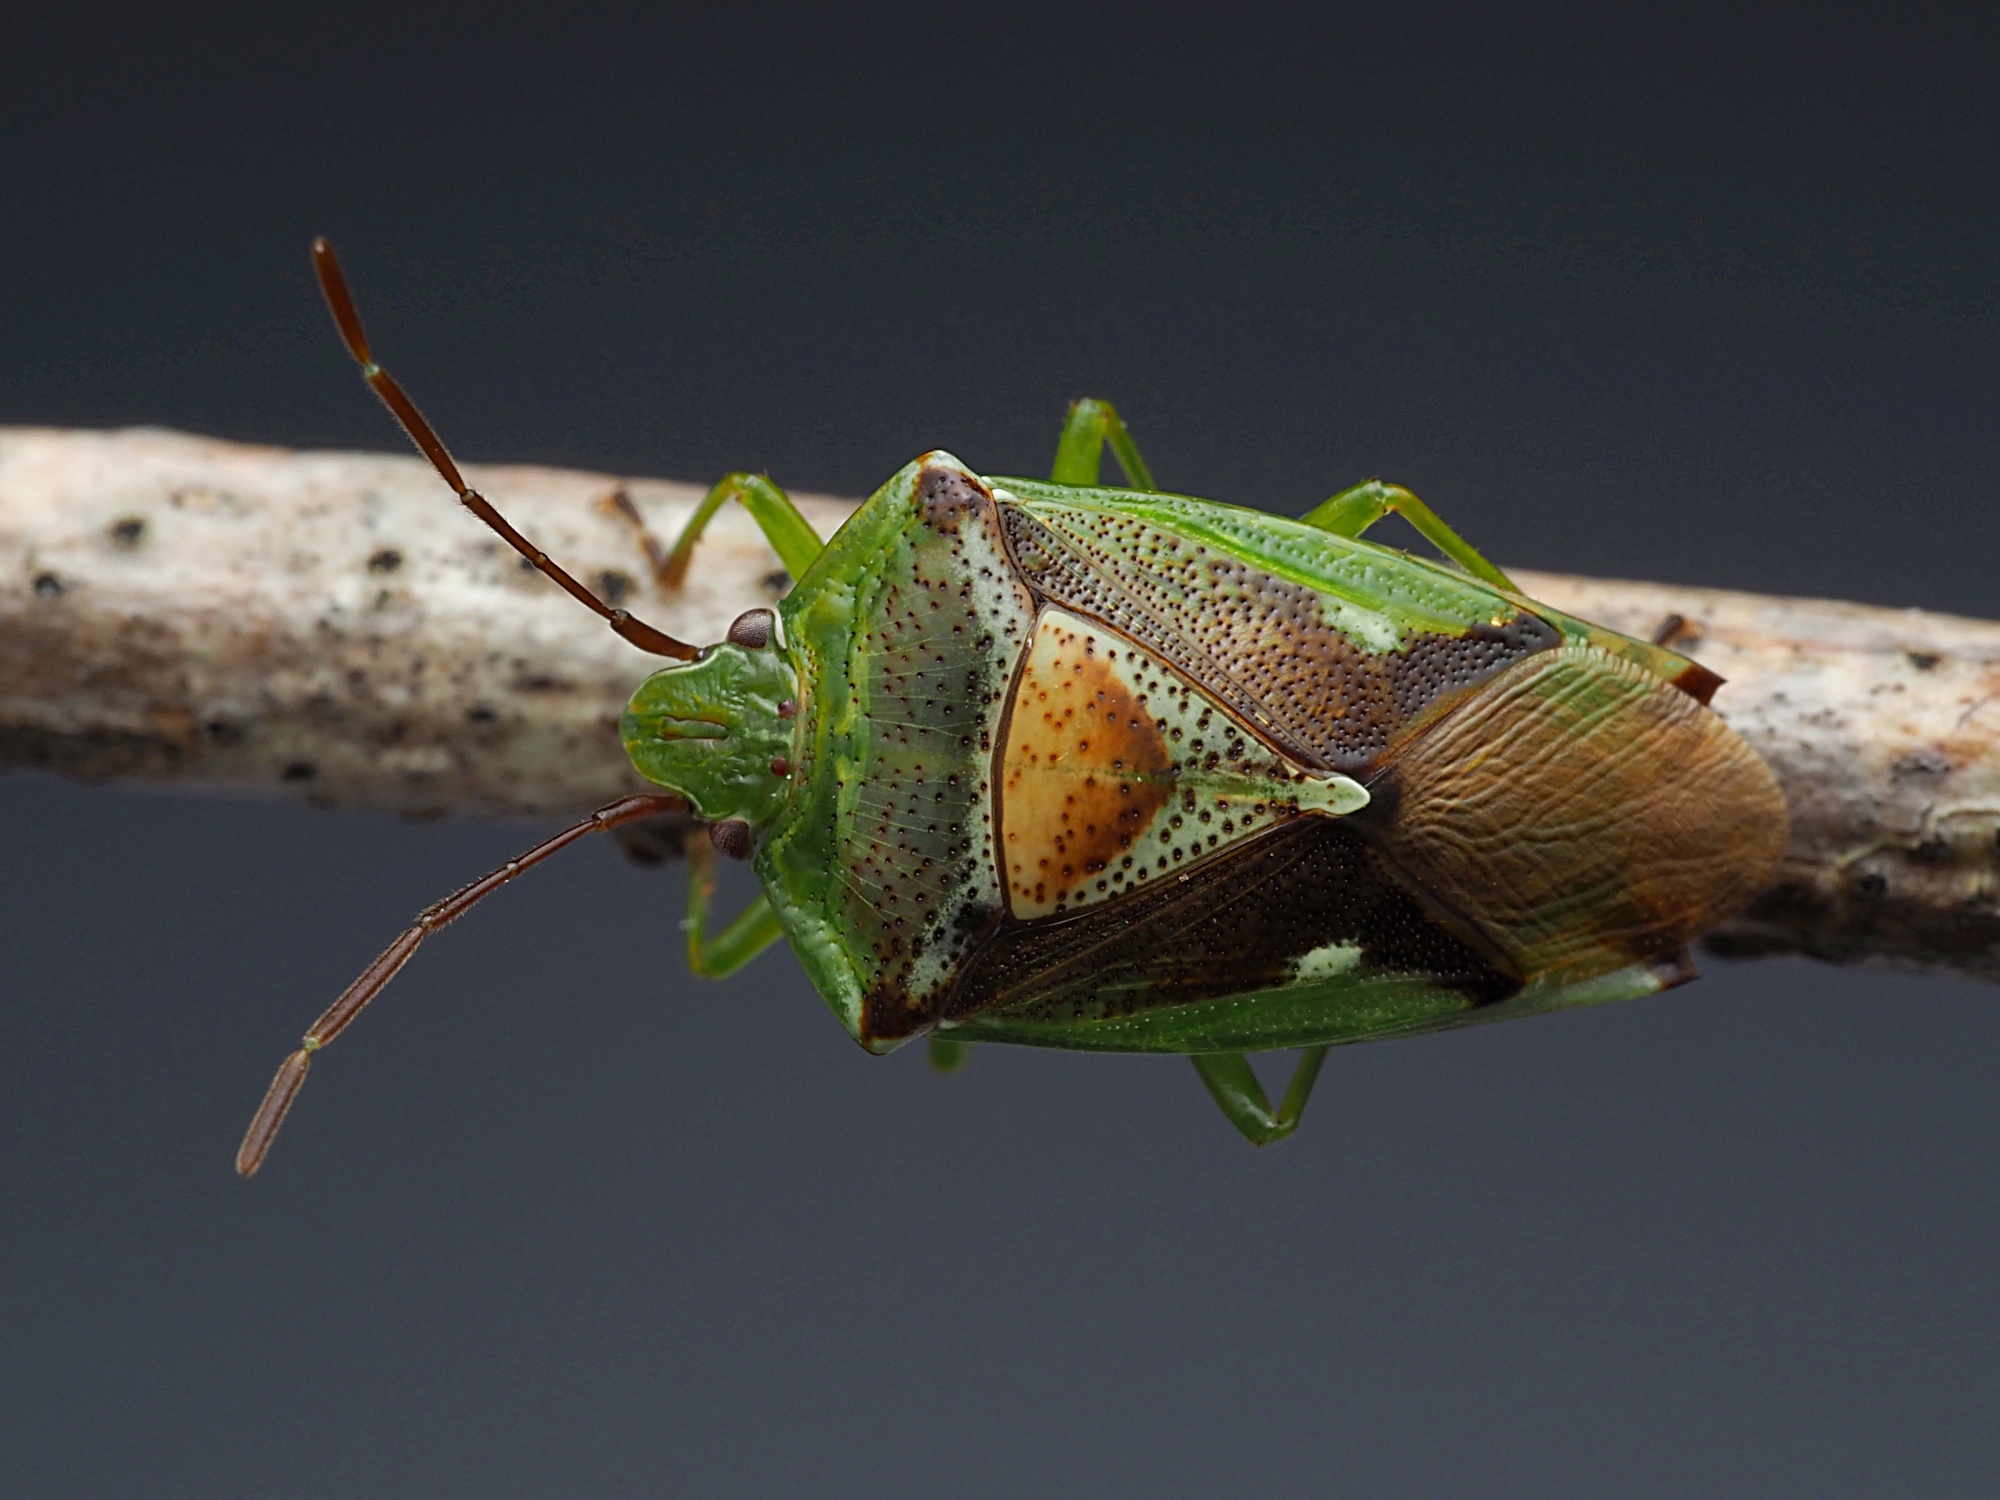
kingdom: Animalia
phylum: Arthropoda
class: Insecta
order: Hemiptera
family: Acanthosomatidae
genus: Oncacontias
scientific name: Oncacontias vittatus
